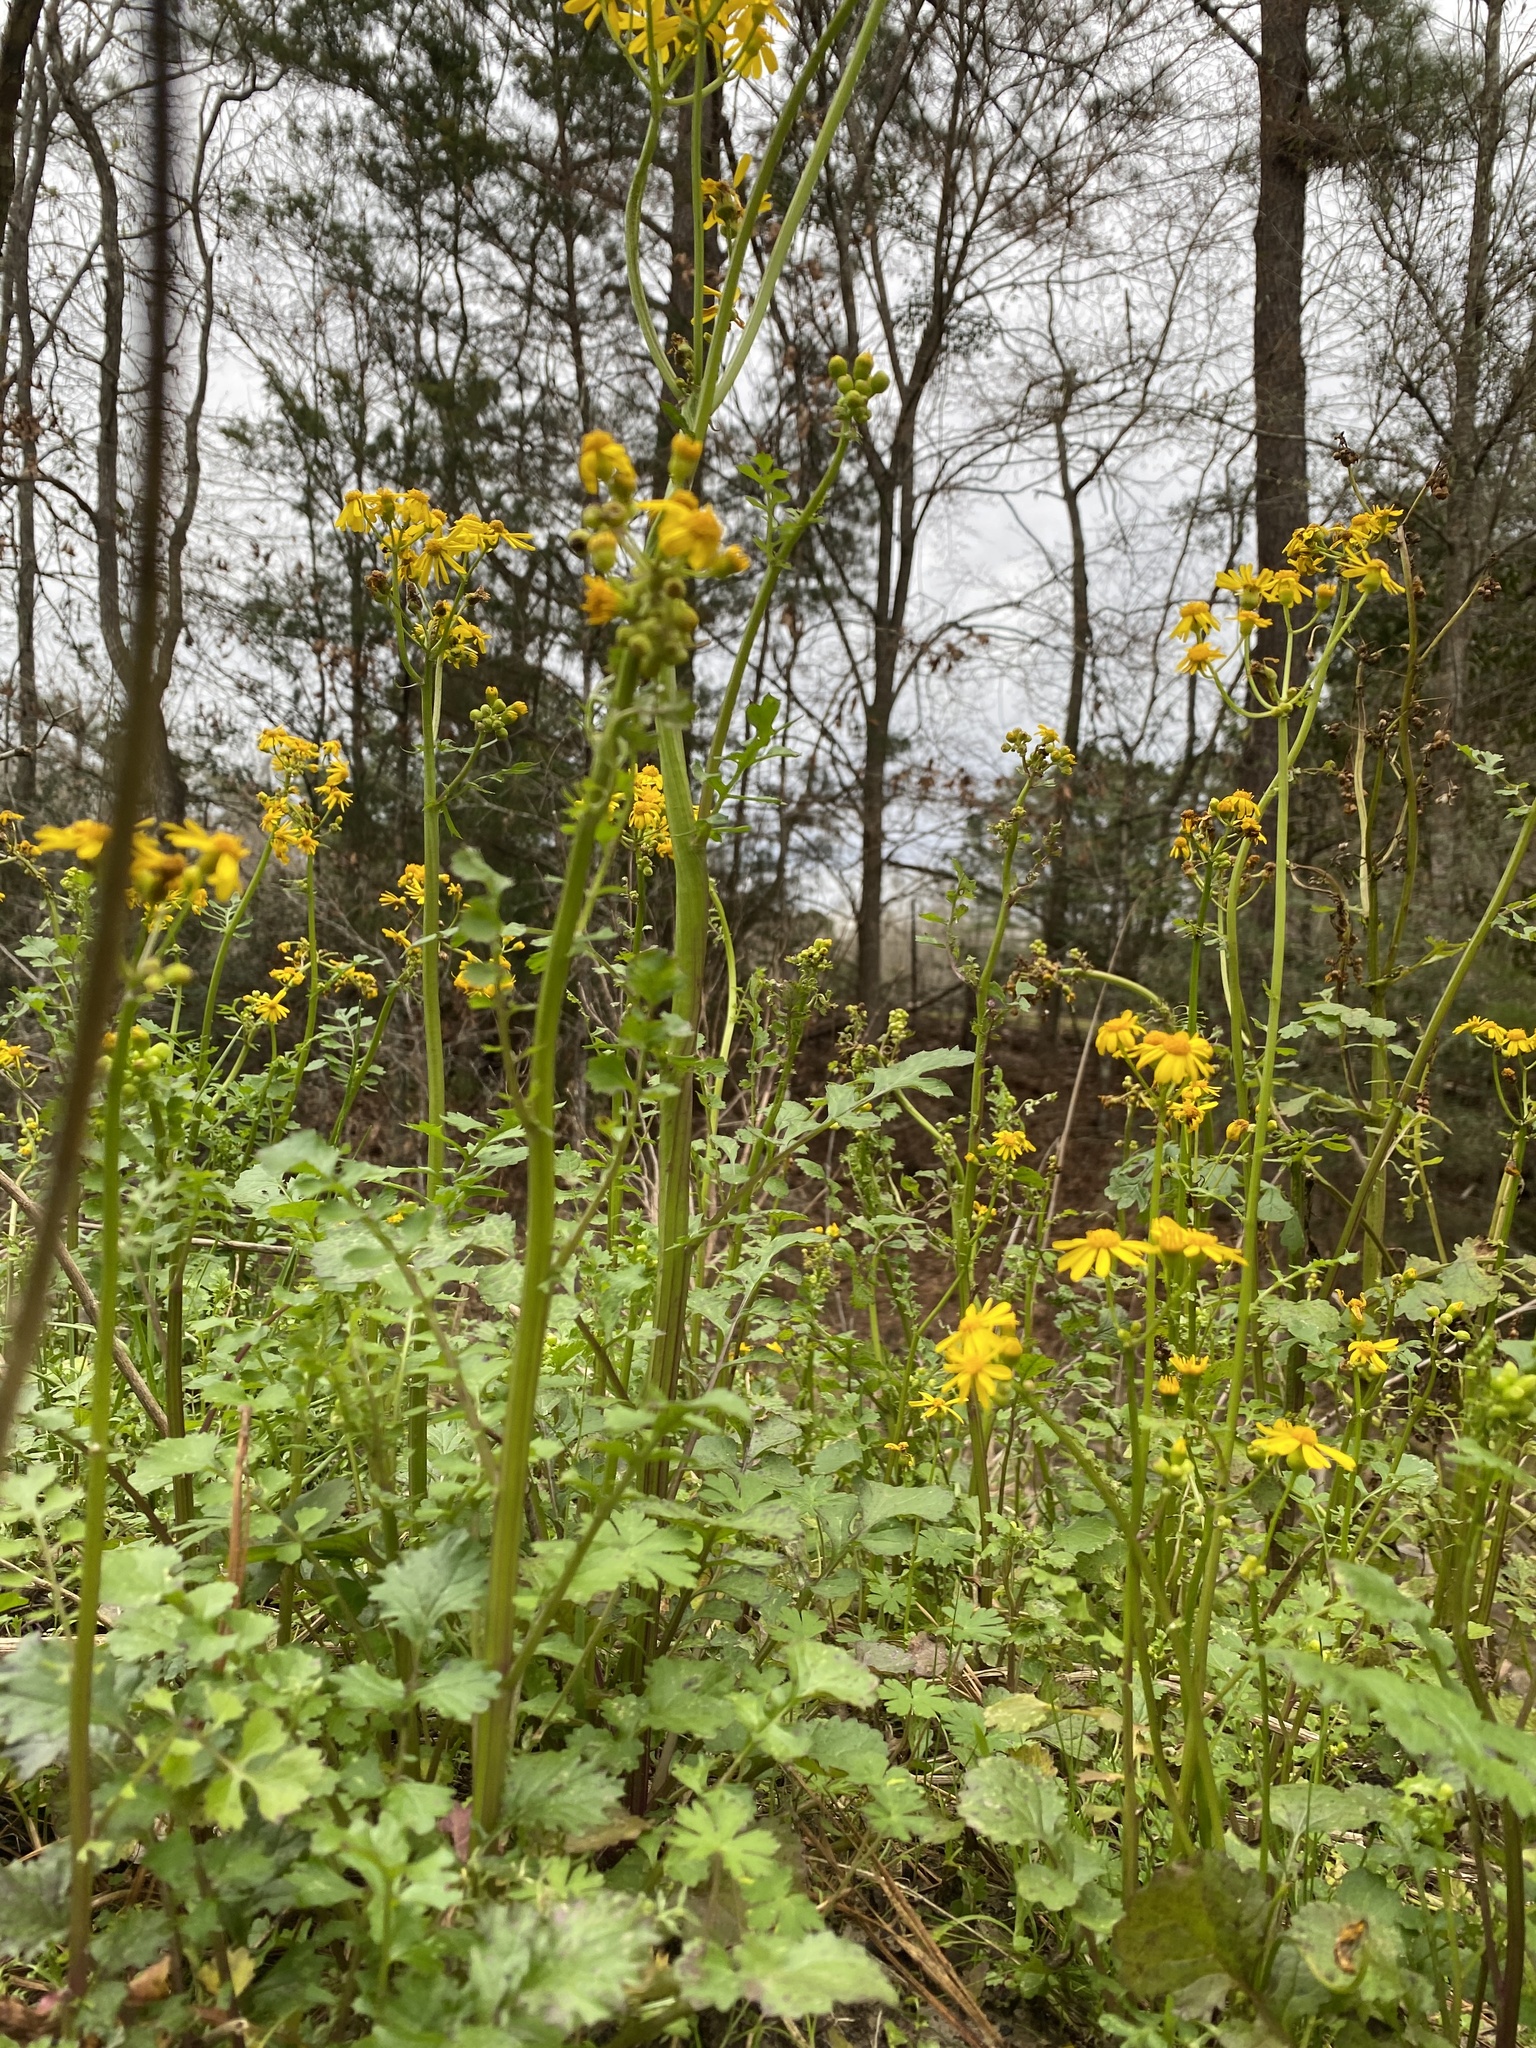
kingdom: Plantae
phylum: Tracheophyta
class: Magnoliopsida
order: Asterales
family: Asteraceae
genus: Packera
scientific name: Packera glabella
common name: Butterweed
